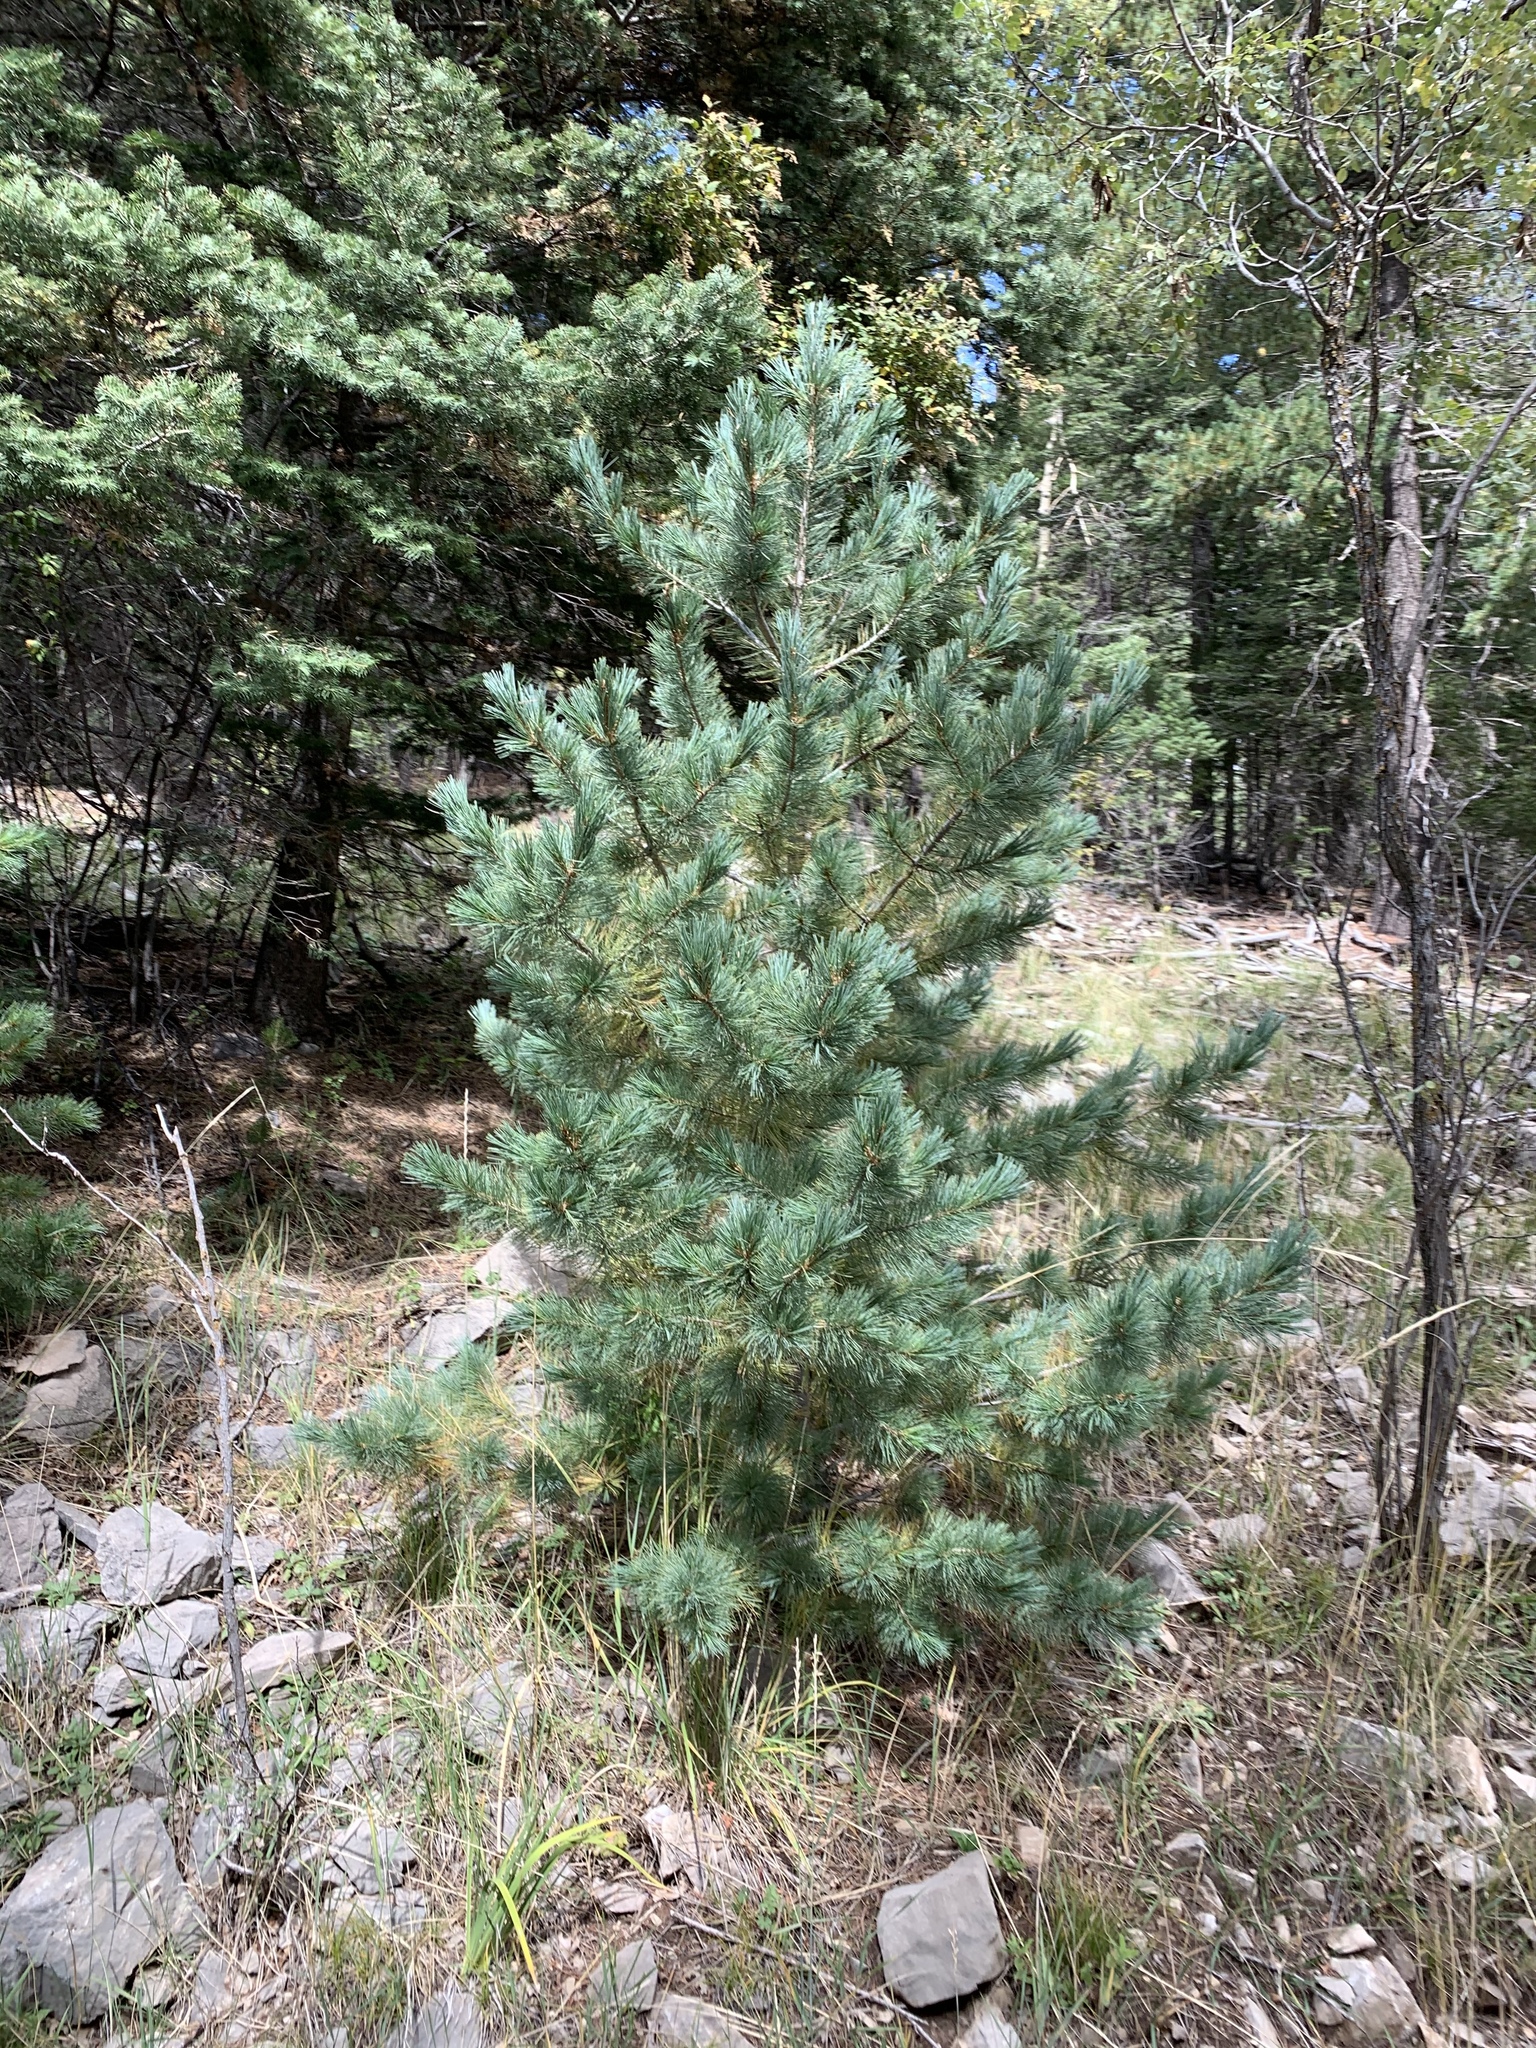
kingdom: Plantae
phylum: Tracheophyta
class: Pinopsida
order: Pinales
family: Pinaceae
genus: Pinus
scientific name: Pinus strobiformis
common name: Southwestern white pine
